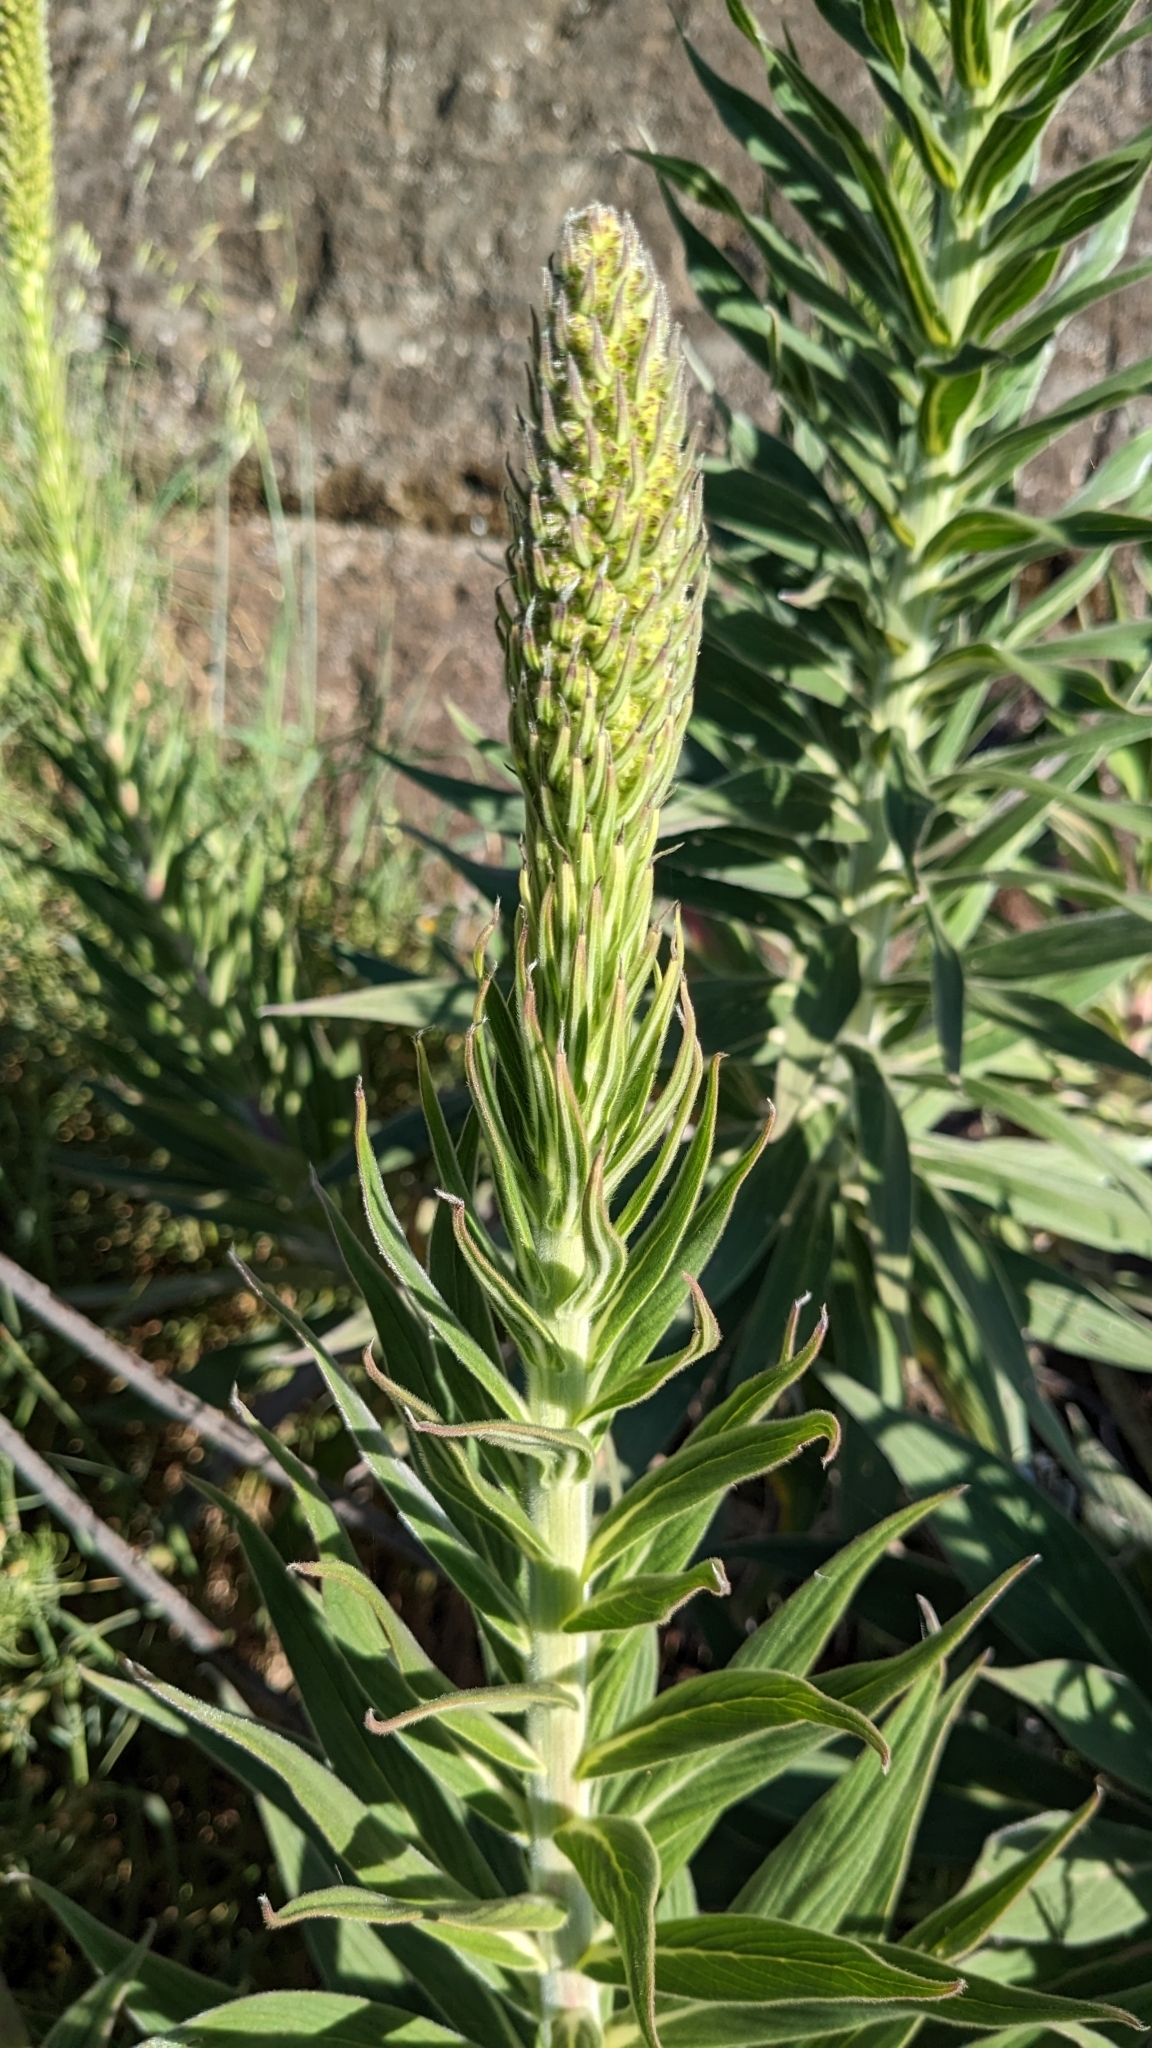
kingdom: Plantae
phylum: Tracheophyta
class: Magnoliopsida
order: Boraginales
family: Boraginaceae
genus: Echium
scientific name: Echium candicans
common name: Pride of madeira
